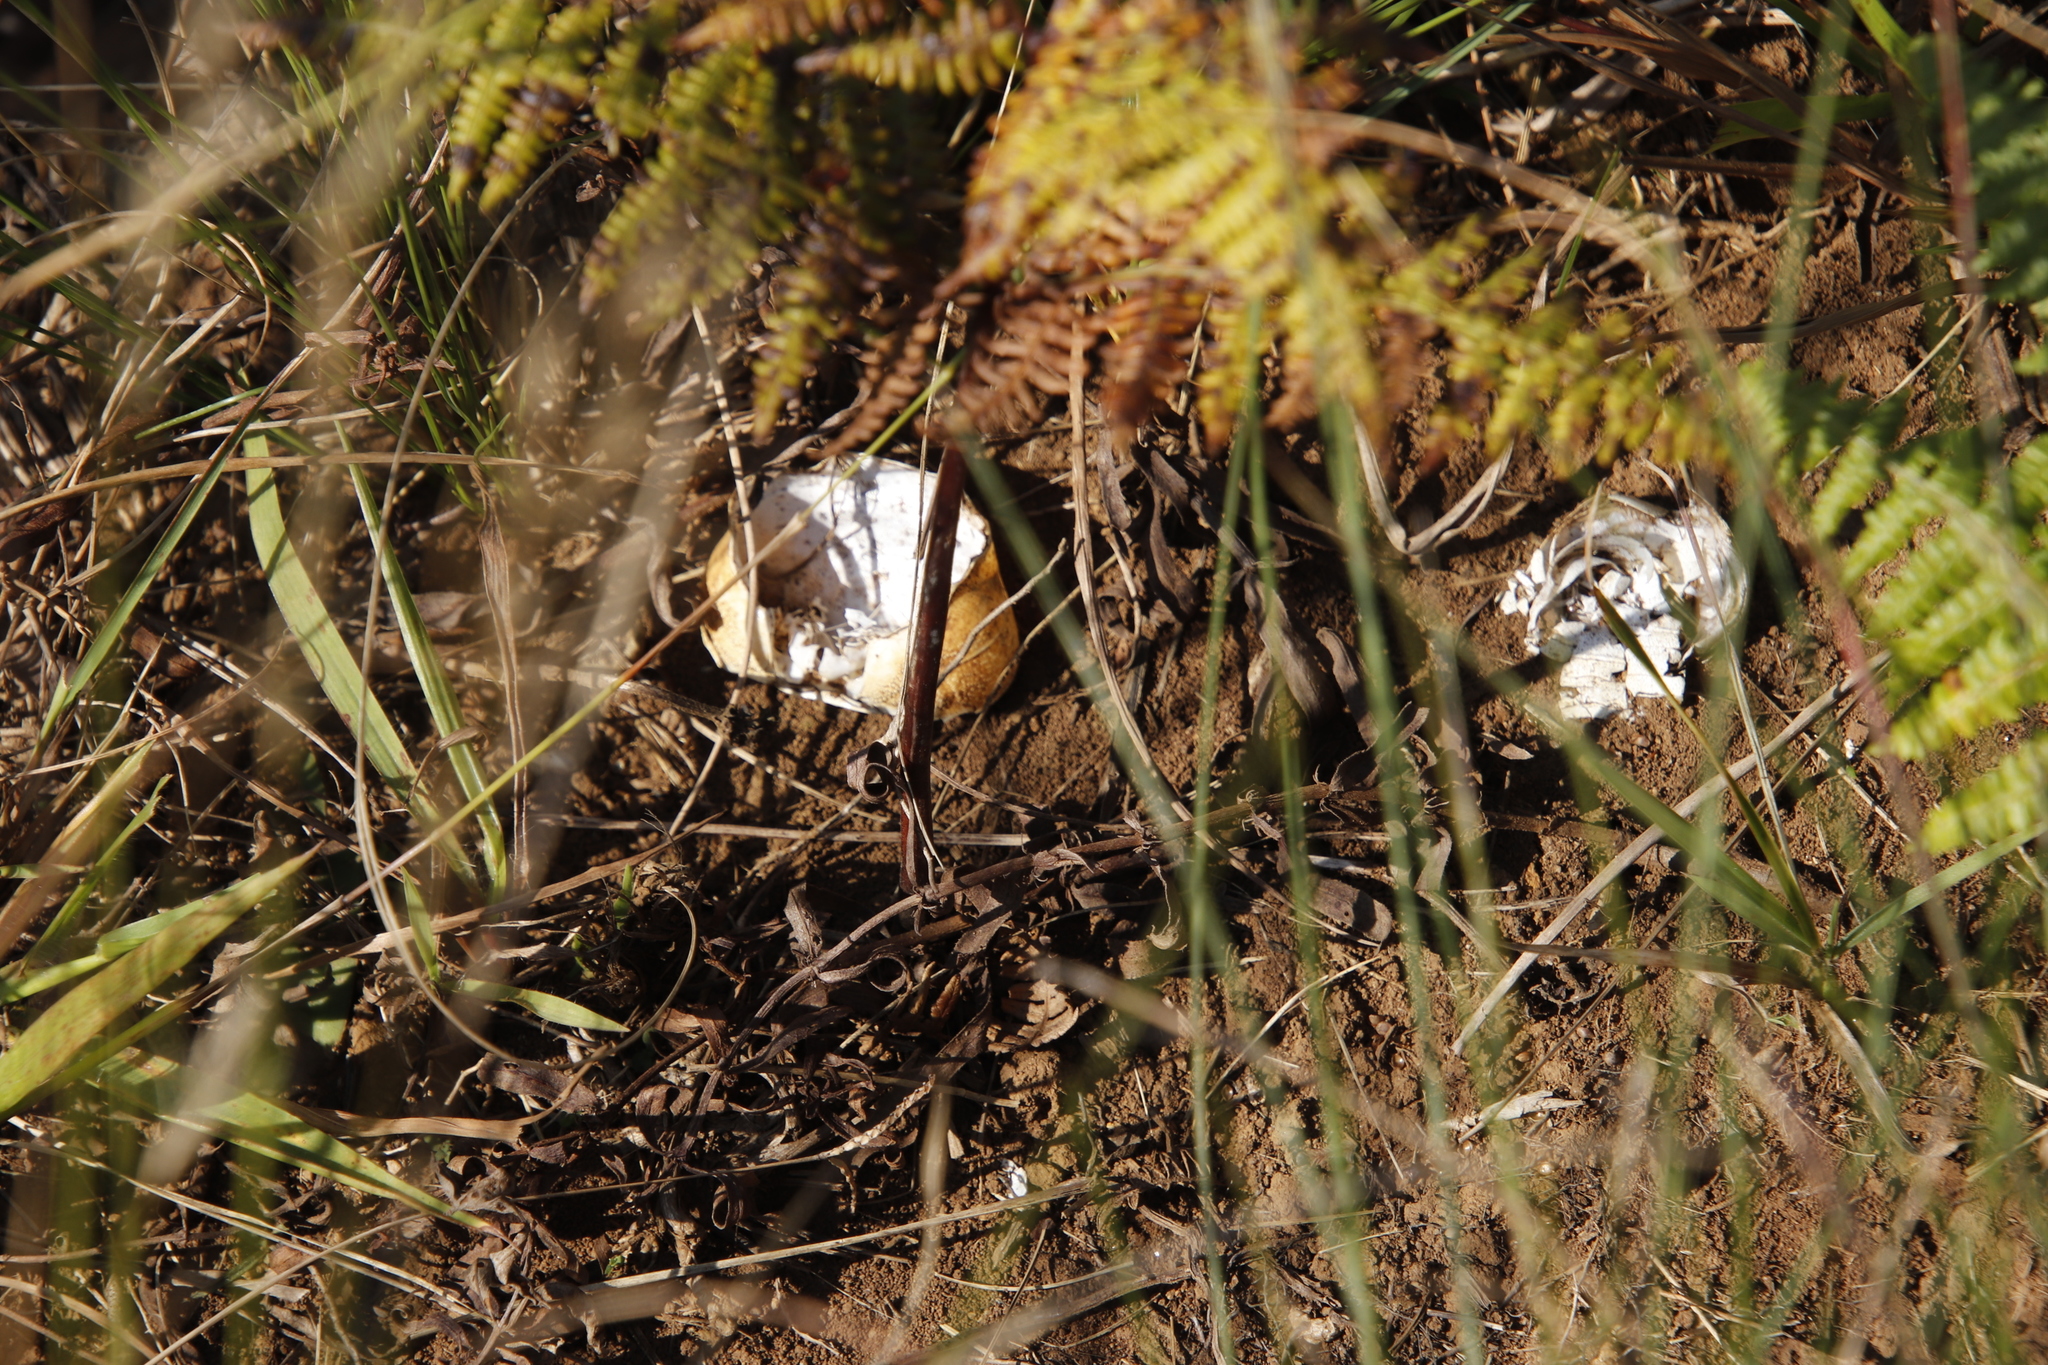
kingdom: Animalia
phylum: Arthropoda
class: Malacostraca
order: Decapoda
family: Potamonautidae
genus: Potamonautes
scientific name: Potamonautes sidneyi
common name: Natal river crab
